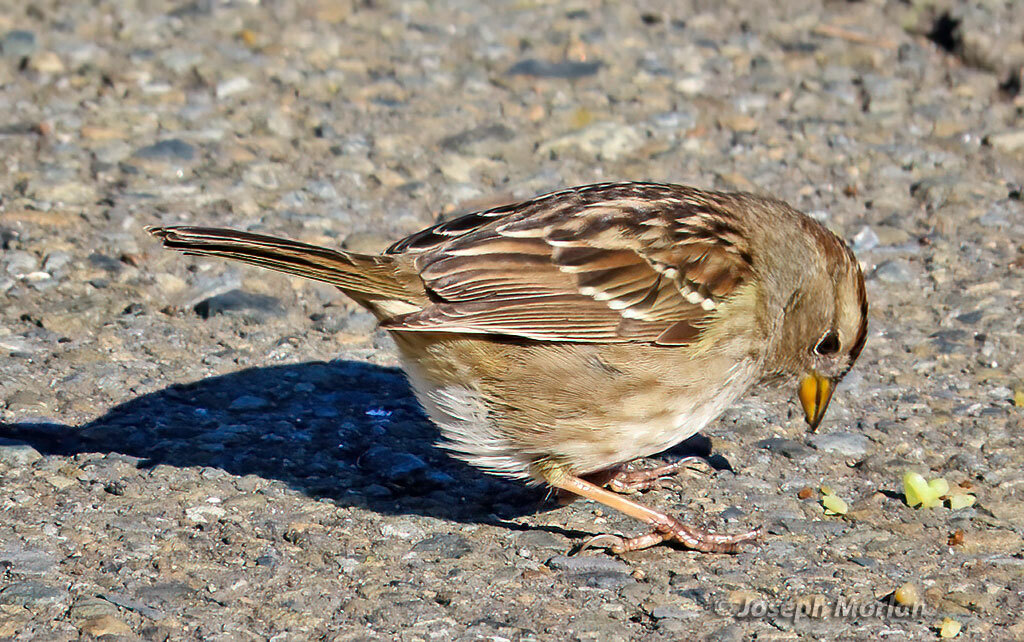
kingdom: Animalia
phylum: Chordata
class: Aves
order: Passeriformes
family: Passerellidae
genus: Zonotrichia
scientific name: Zonotrichia leucophrys
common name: White-crowned sparrow
